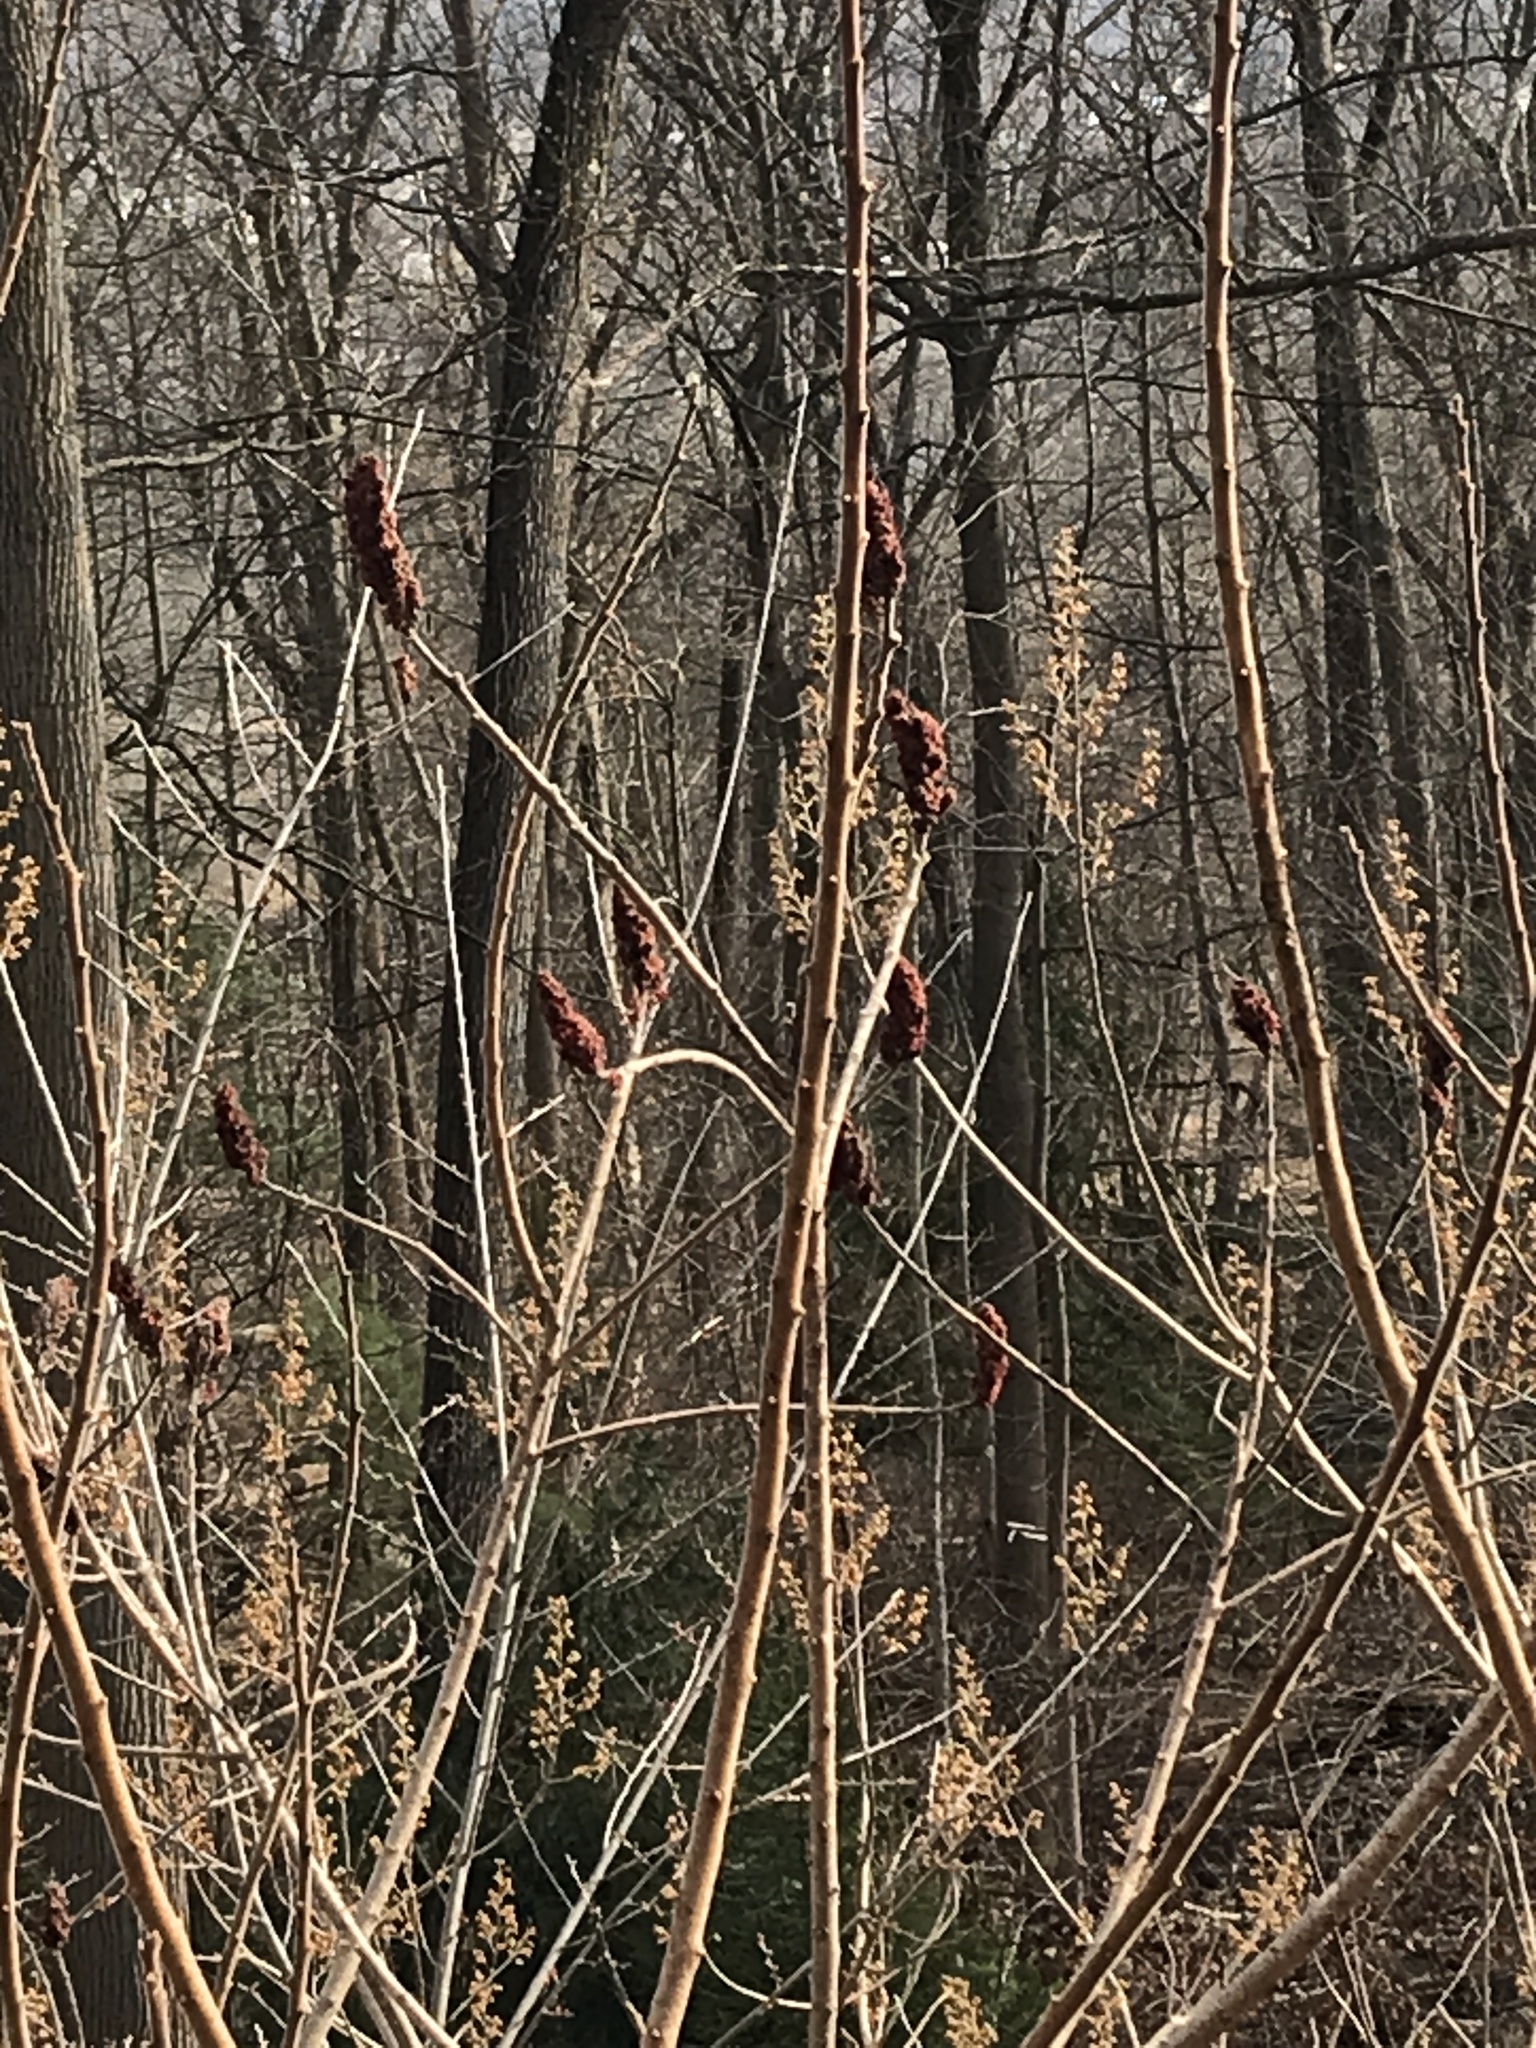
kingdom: Plantae
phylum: Tracheophyta
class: Magnoliopsida
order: Sapindales
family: Anacardiaceae
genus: Rhus
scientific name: Rhus typhina
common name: Staghorn sumac
